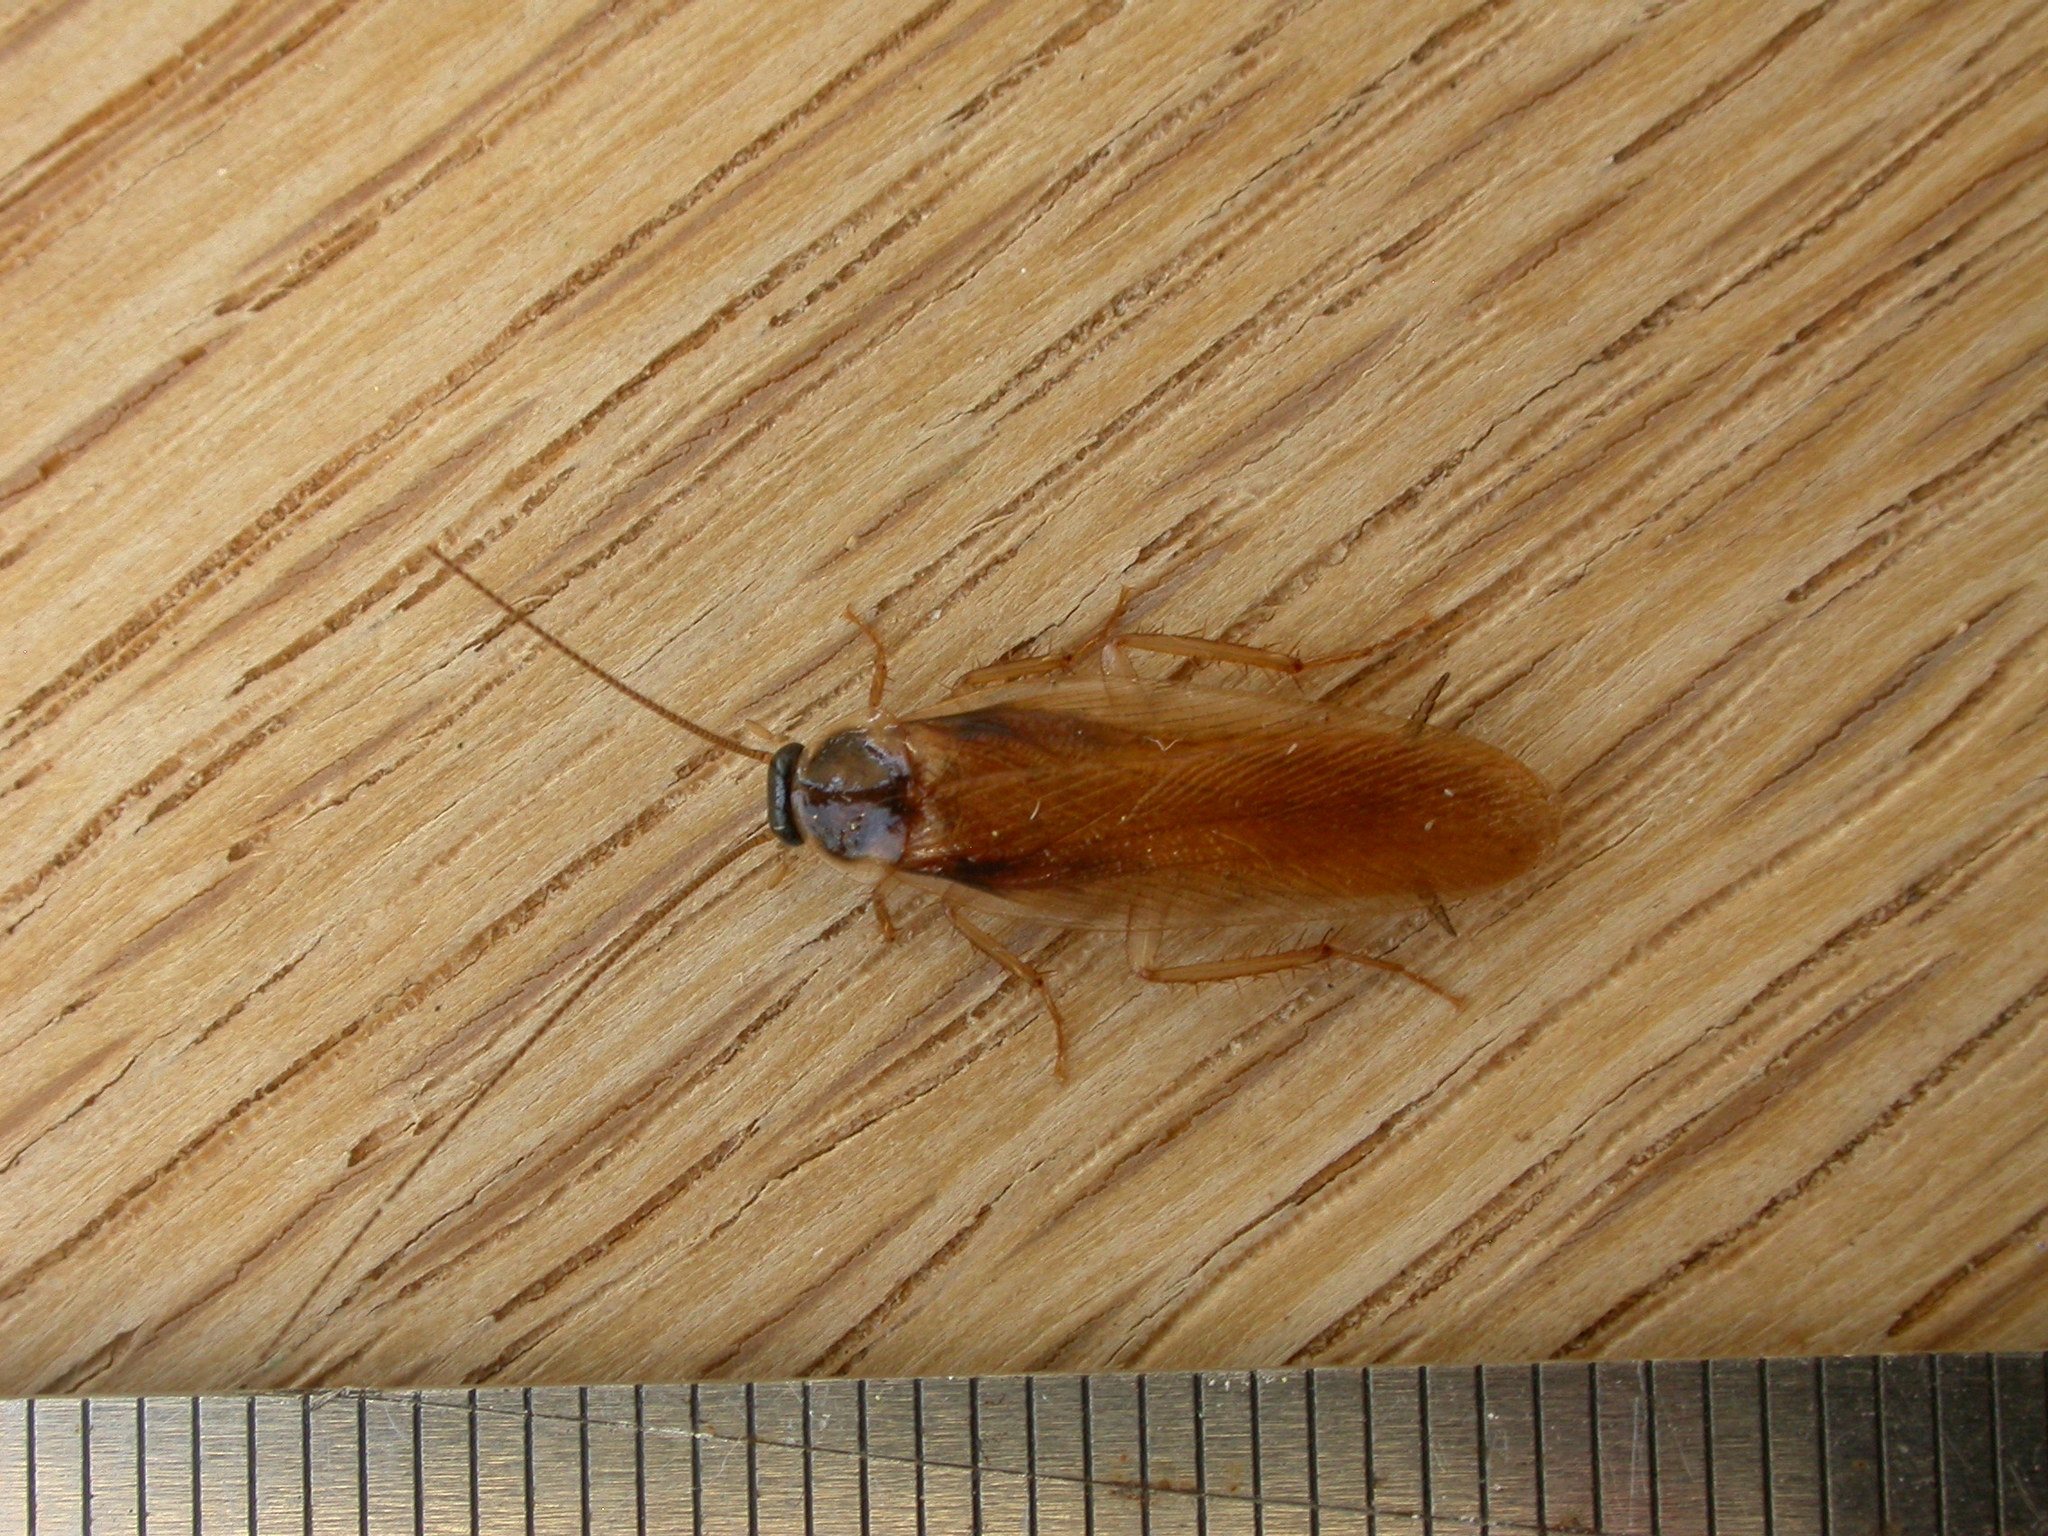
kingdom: Animalia
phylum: Arthropoda
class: Insecta
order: Blattodea
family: Ectobiidae
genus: Dyakinodes
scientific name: Dyakinodes centralis
